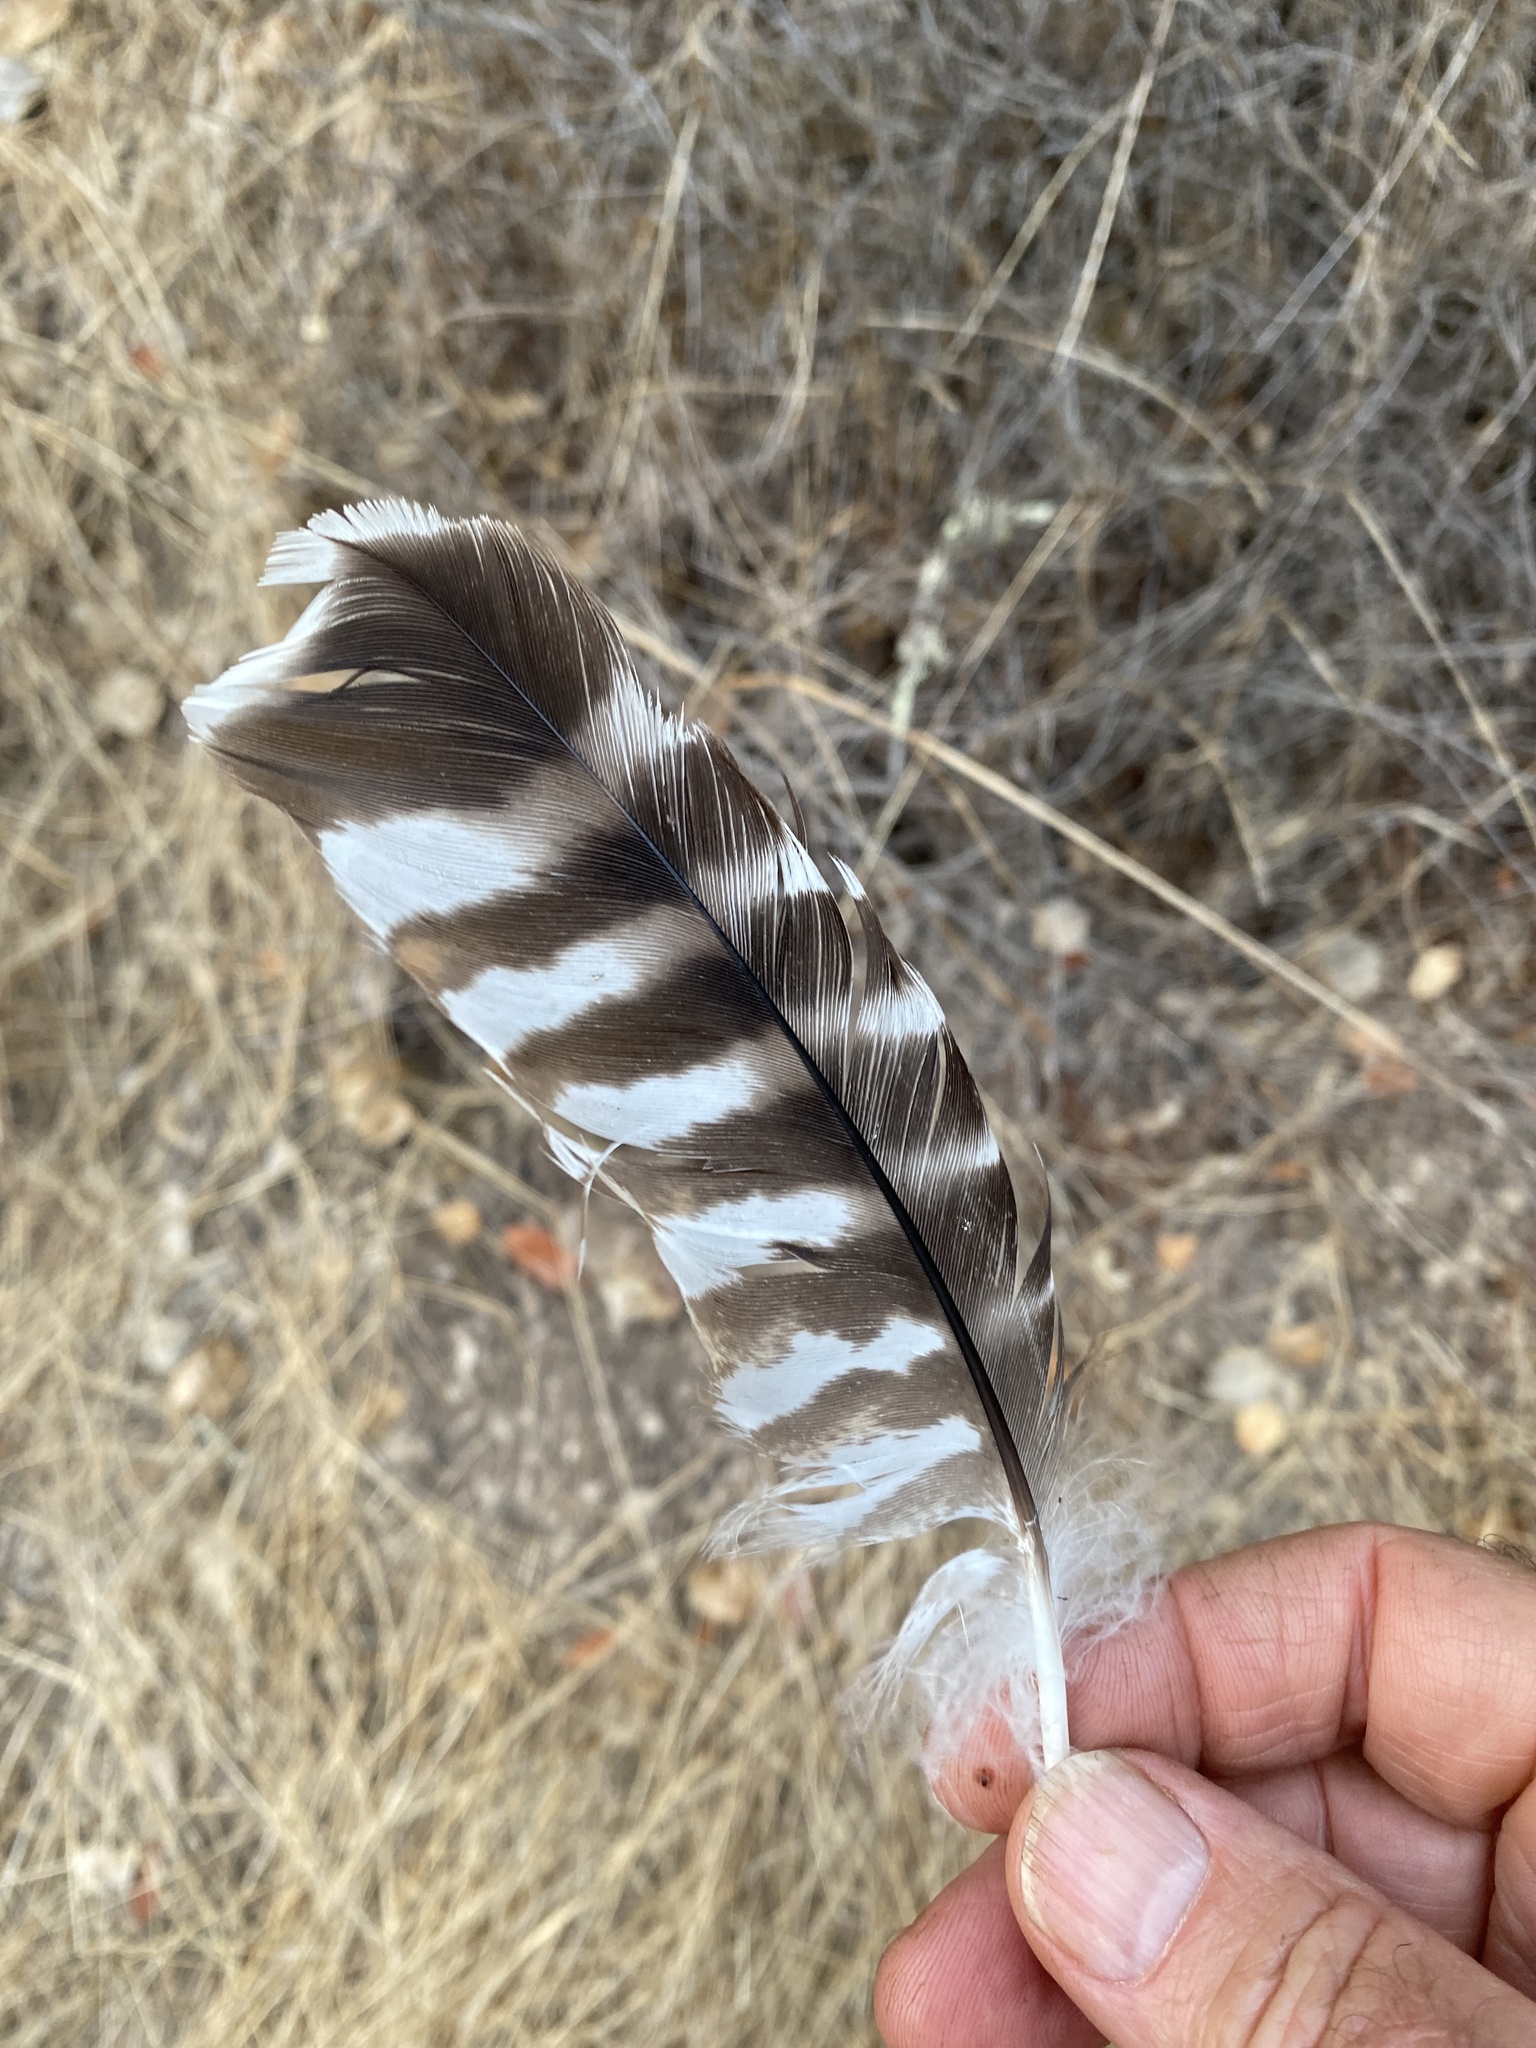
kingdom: Animalia
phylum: Chordata
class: Aves
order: Accipitriformes
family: Accipitridae
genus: Buteo
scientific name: Buteo lineatus
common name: Red-shouldered hawk
